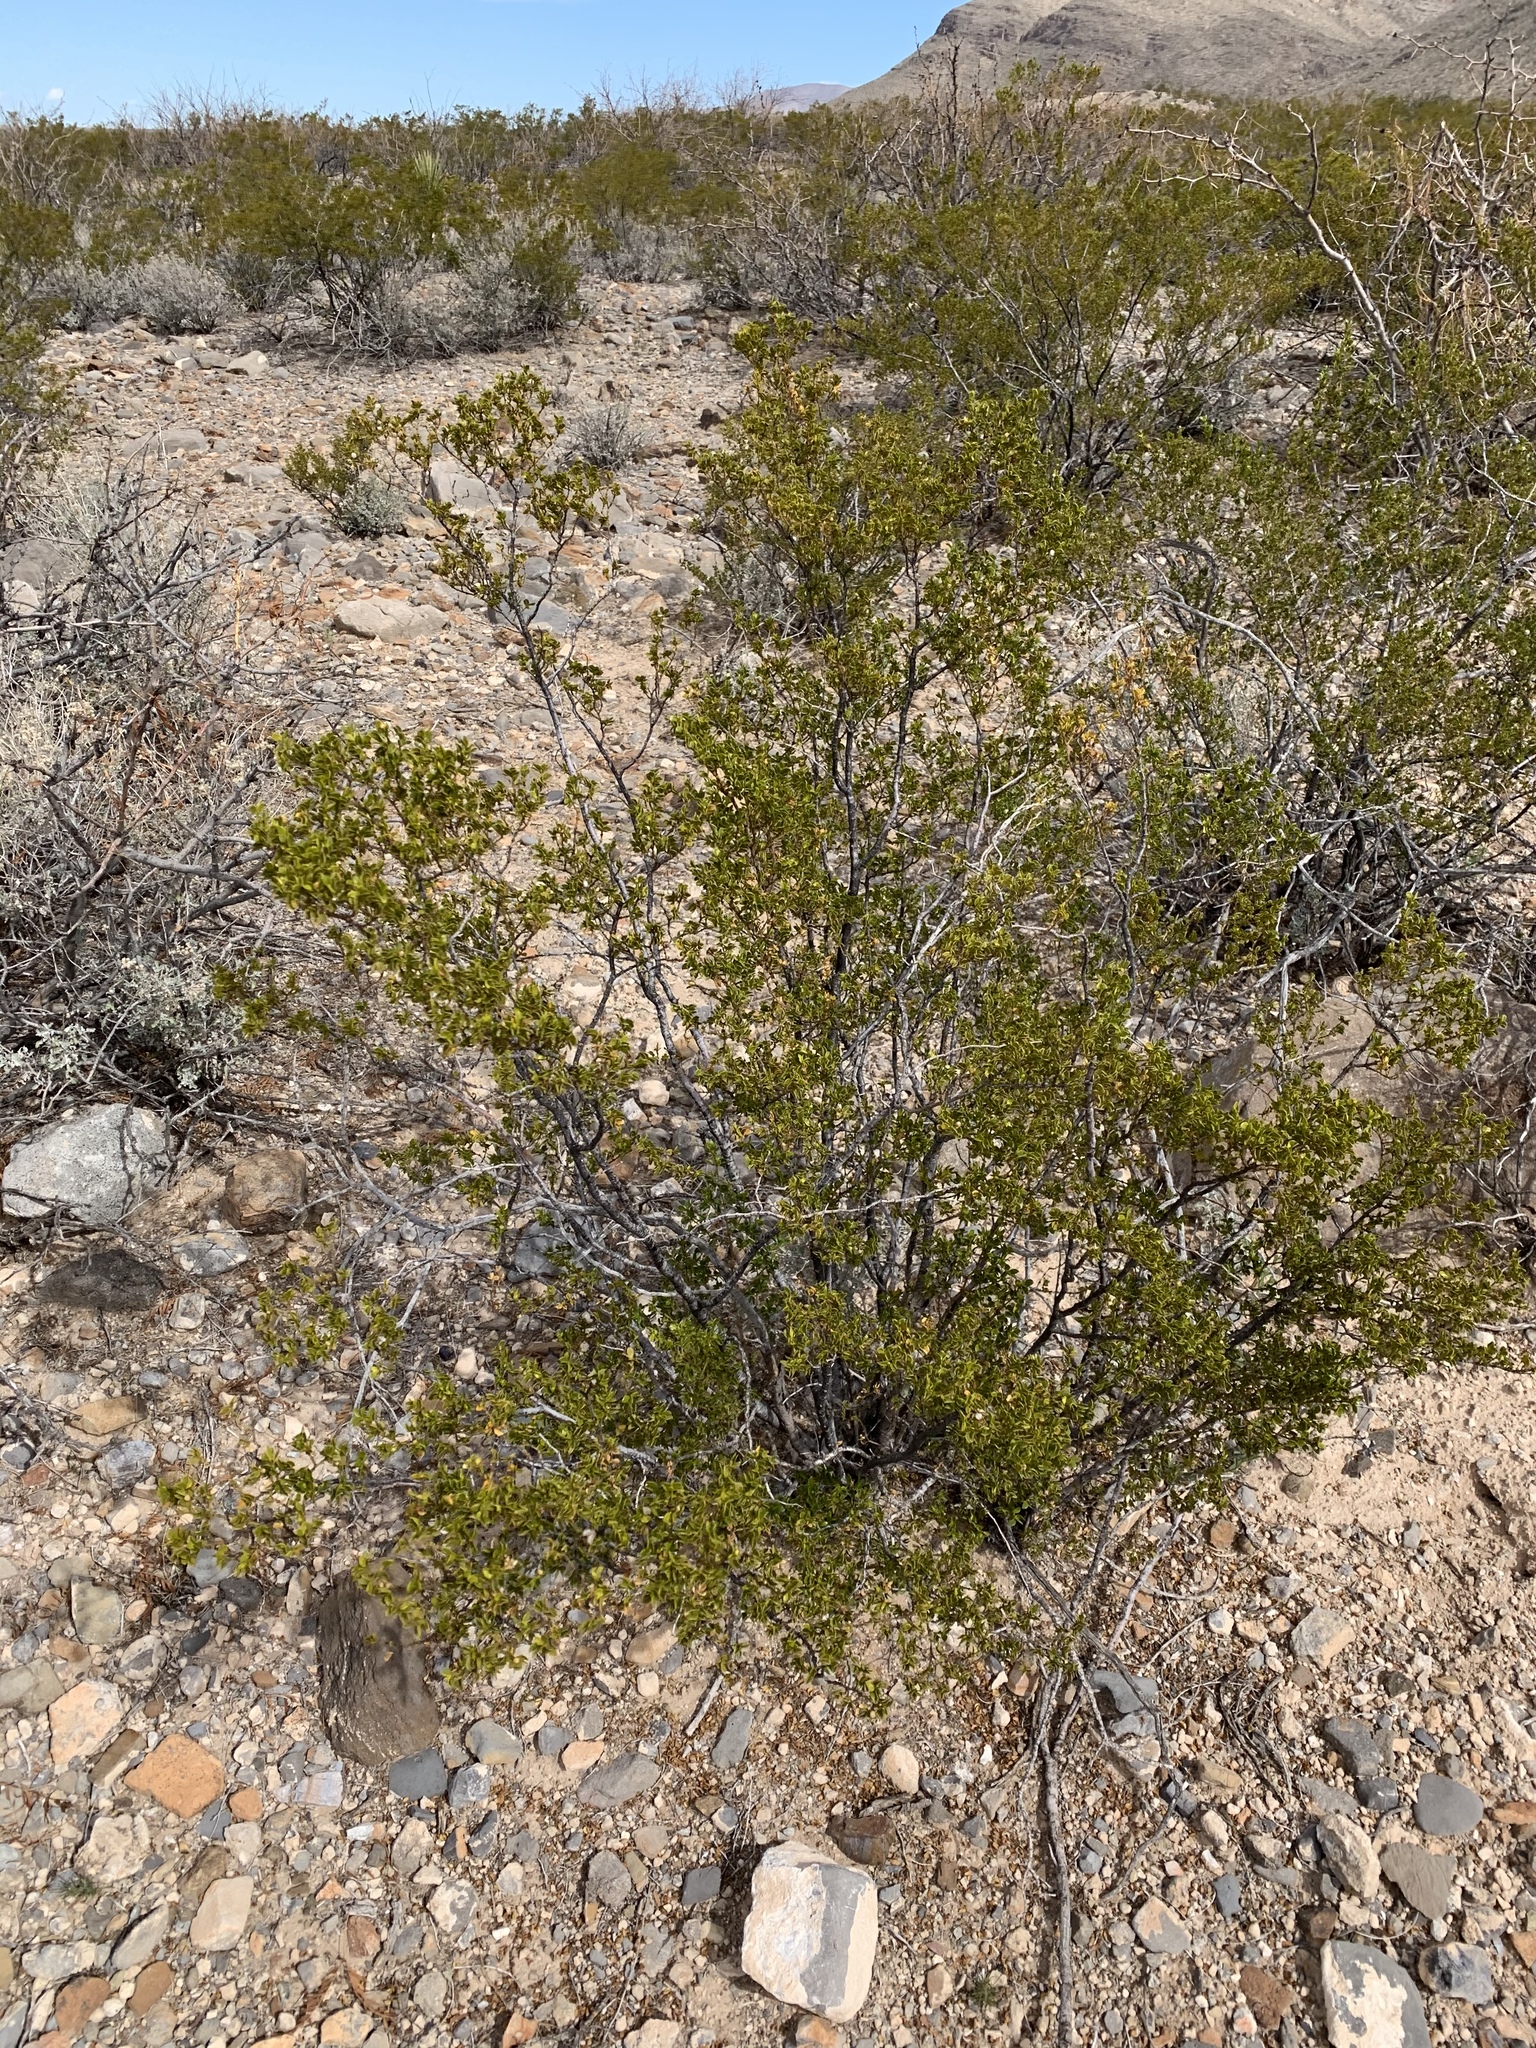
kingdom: Plantae
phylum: Tracheophyta
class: Magnoliopsida
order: Zygophyllales
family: Zygophyllaceae
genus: Larrea
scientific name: Larrea tridentata
